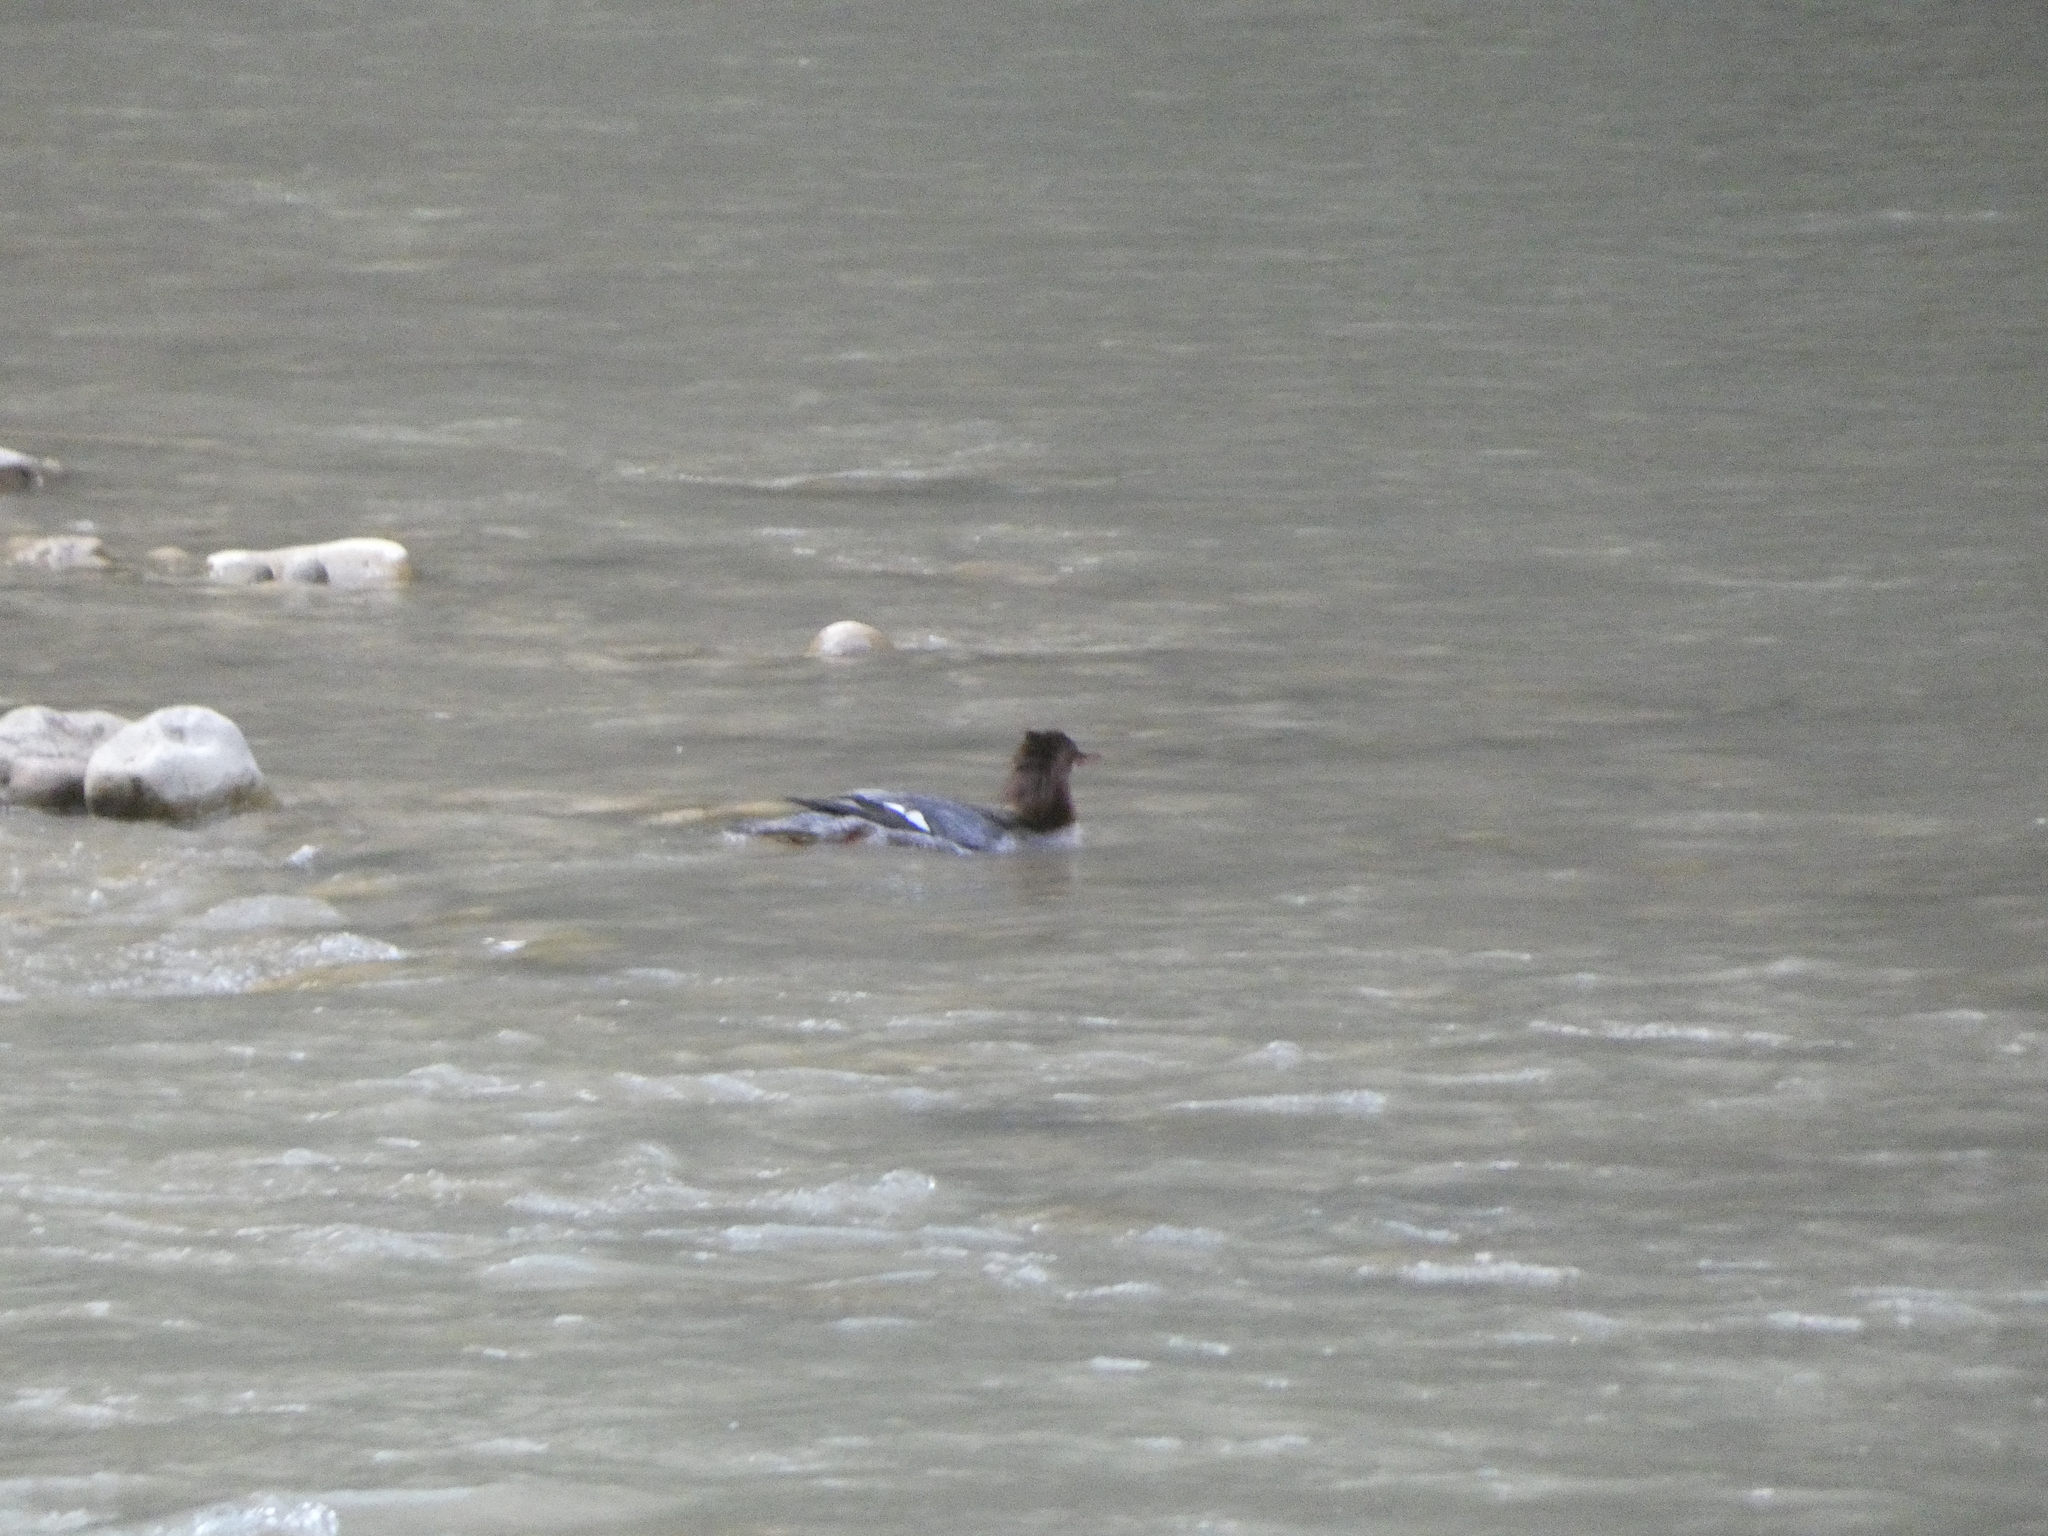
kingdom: Animalia
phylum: Chordata
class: Aves
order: Anseriformes
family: Anatidae
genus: Mergus
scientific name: Mergus merganser
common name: Common merganser
